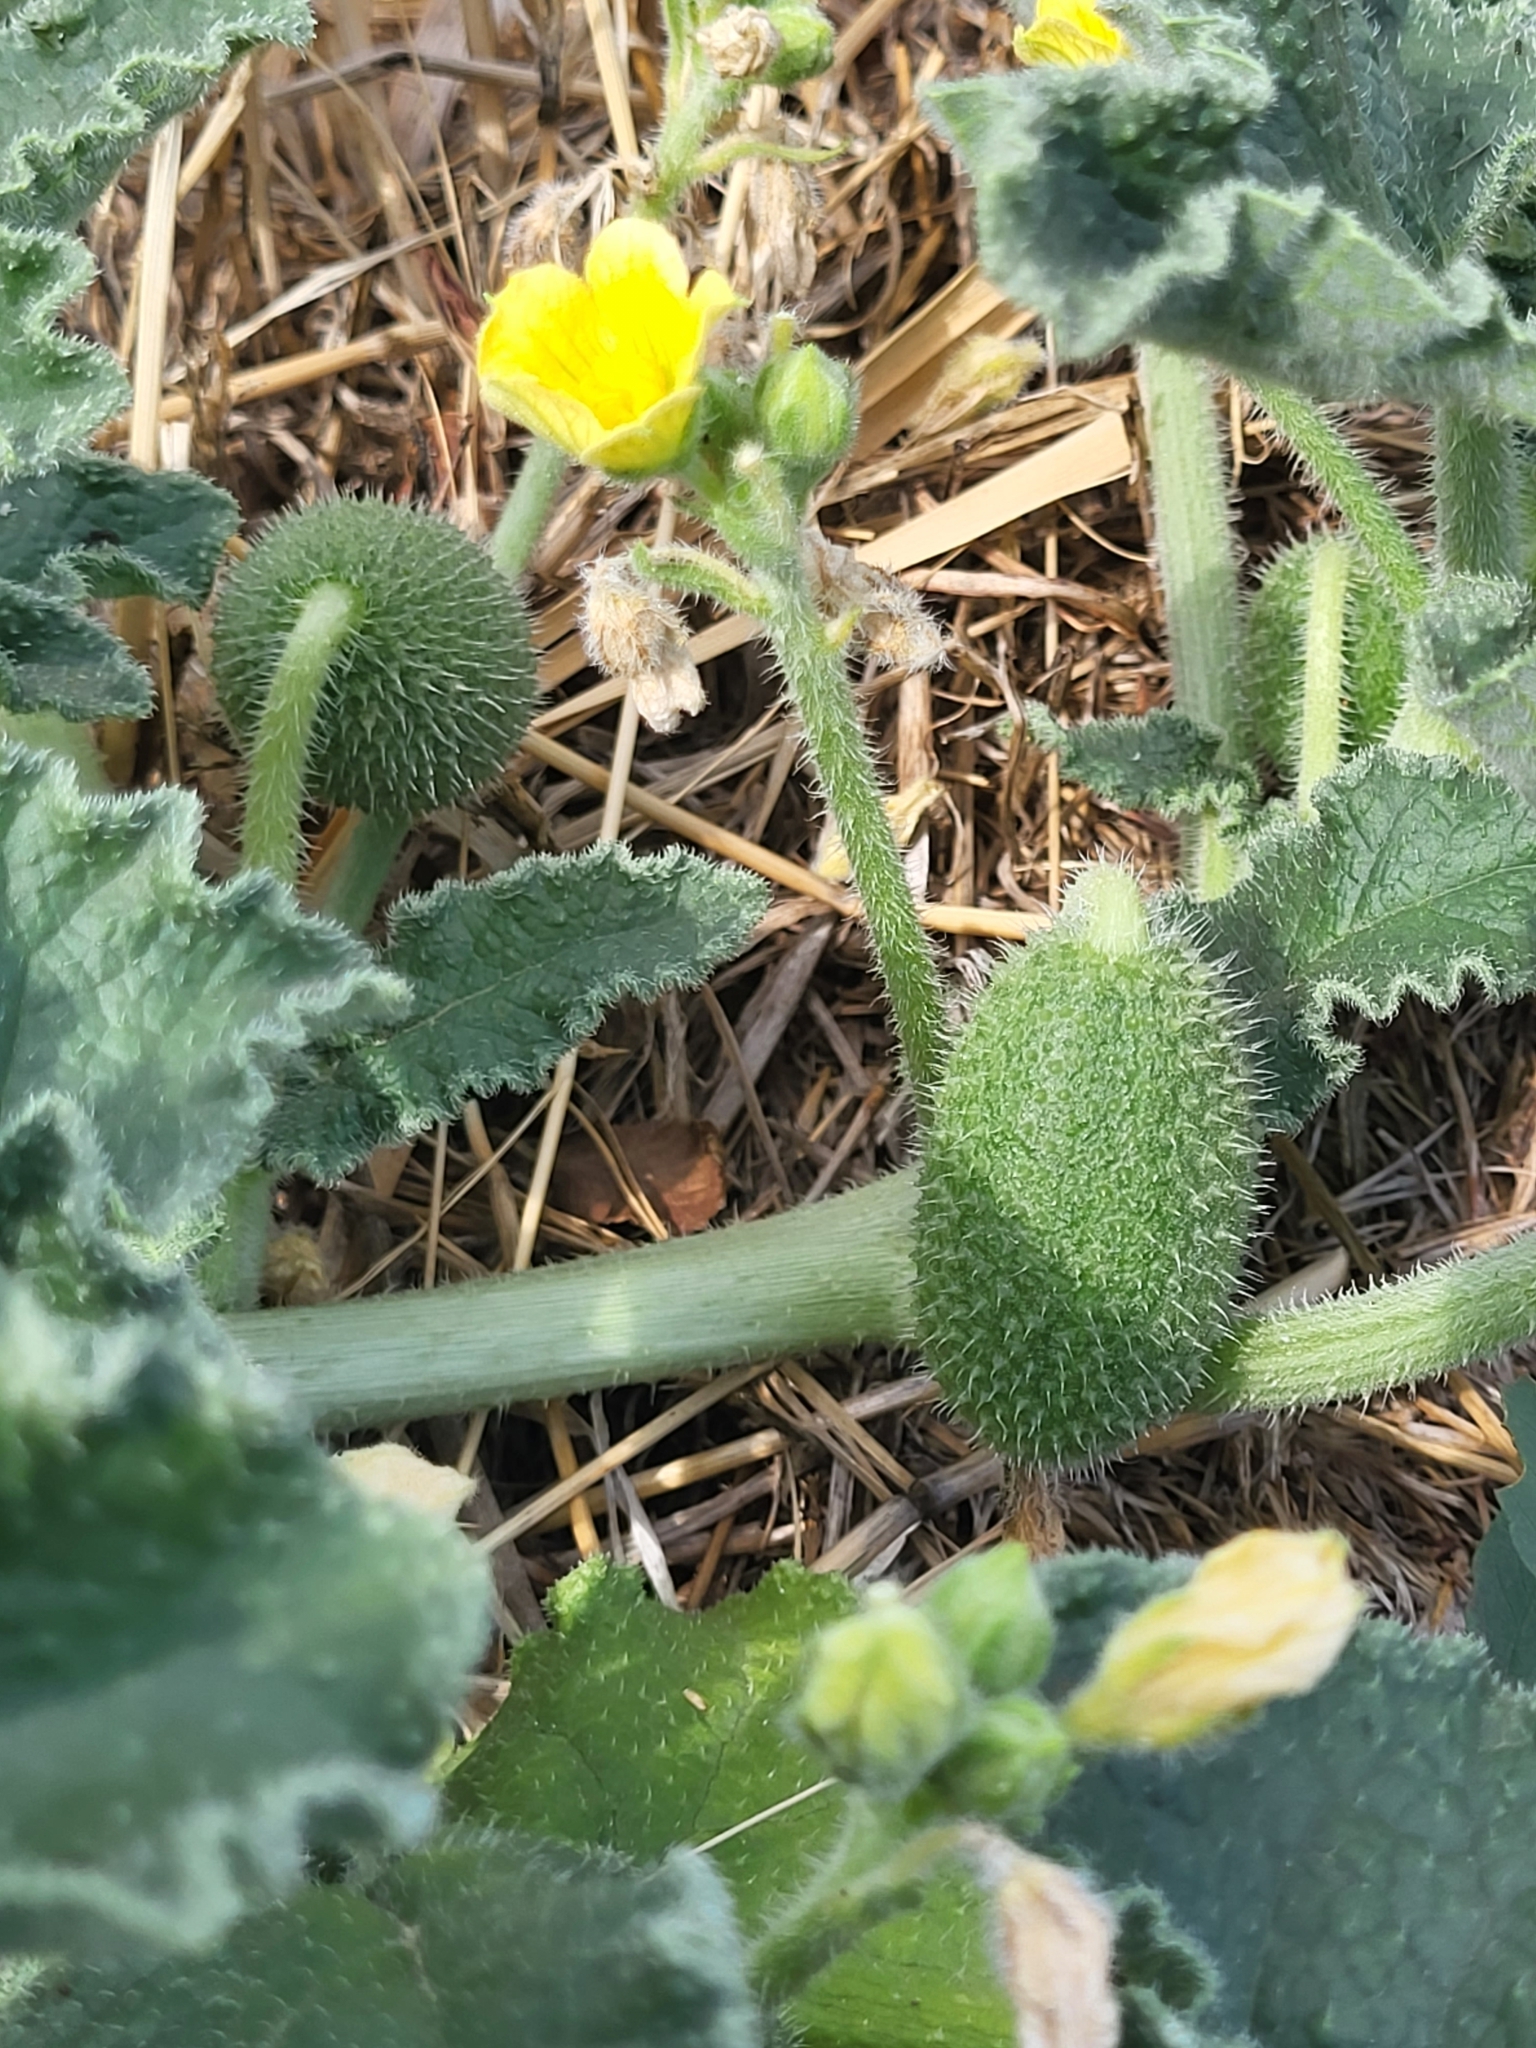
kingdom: Plantae
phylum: Tracheophyta
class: Magnoliopsida
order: Cucurbitales
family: Cucurbitaceae
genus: Ecballium
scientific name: Ecballium elaterium
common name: Squirting cucumber
